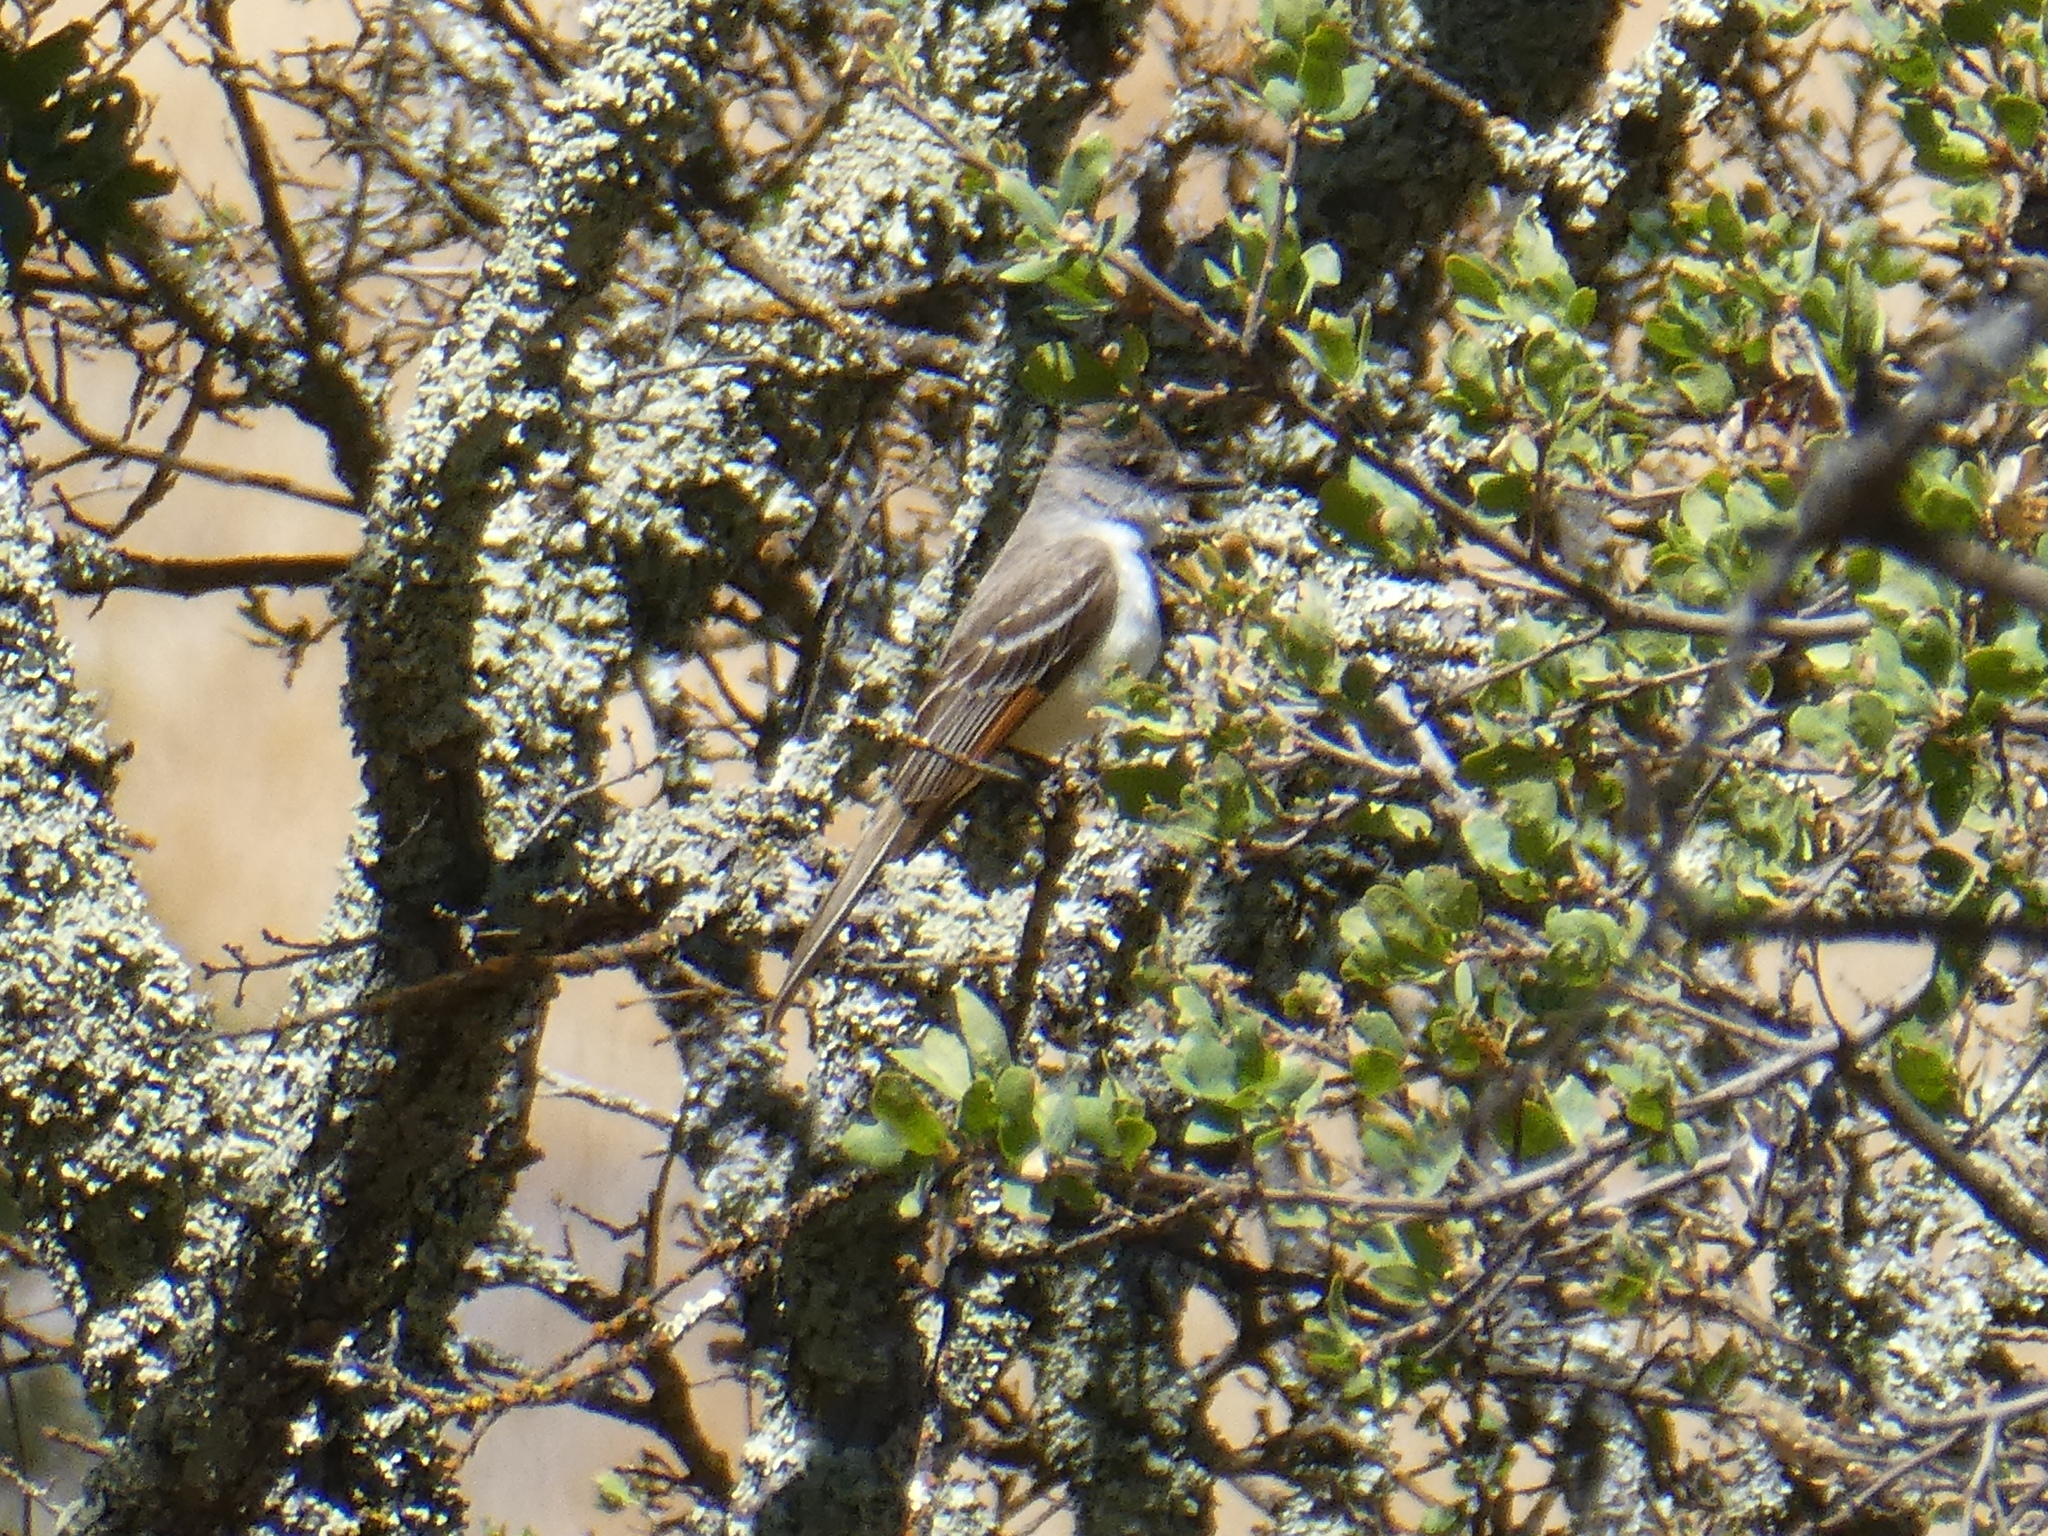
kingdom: Animalia
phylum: Chordata
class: Aves
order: Passeriformes
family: Tyrannidae
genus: Myiarchus
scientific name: Myiarchus cinerascens
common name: Ash-throated flycatcher
